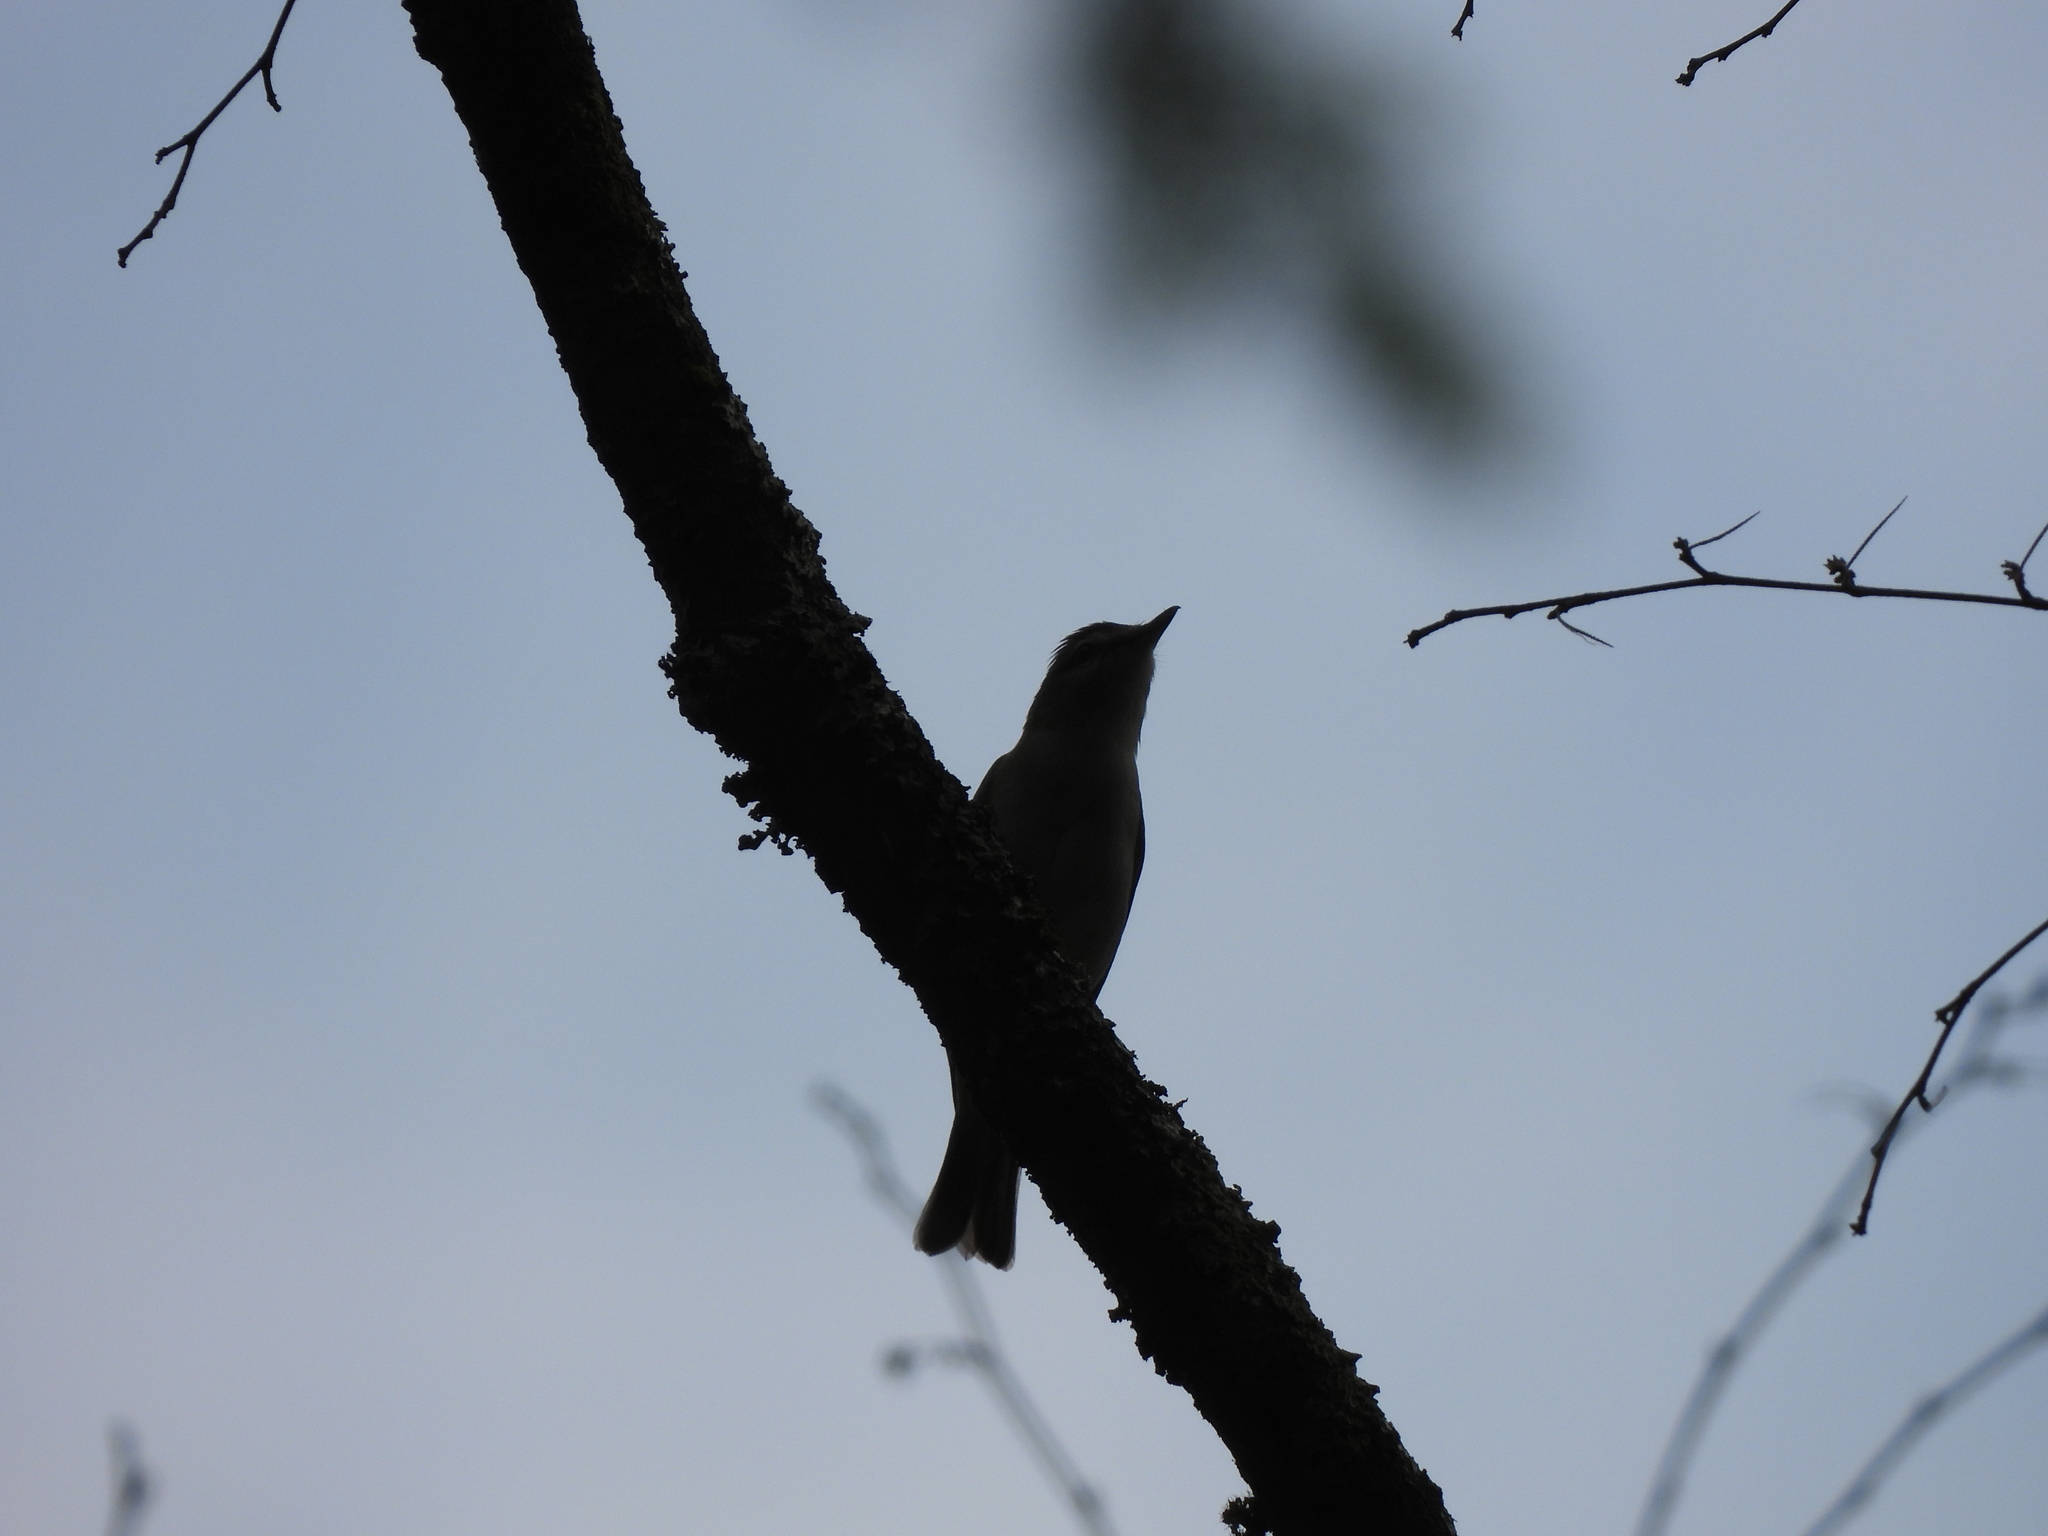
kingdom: Animalia
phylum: Chordata
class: Aves
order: Passeriformes
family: Vireonidae
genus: Vireo
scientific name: Vireo olivaceus
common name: Red-eyed vireo
